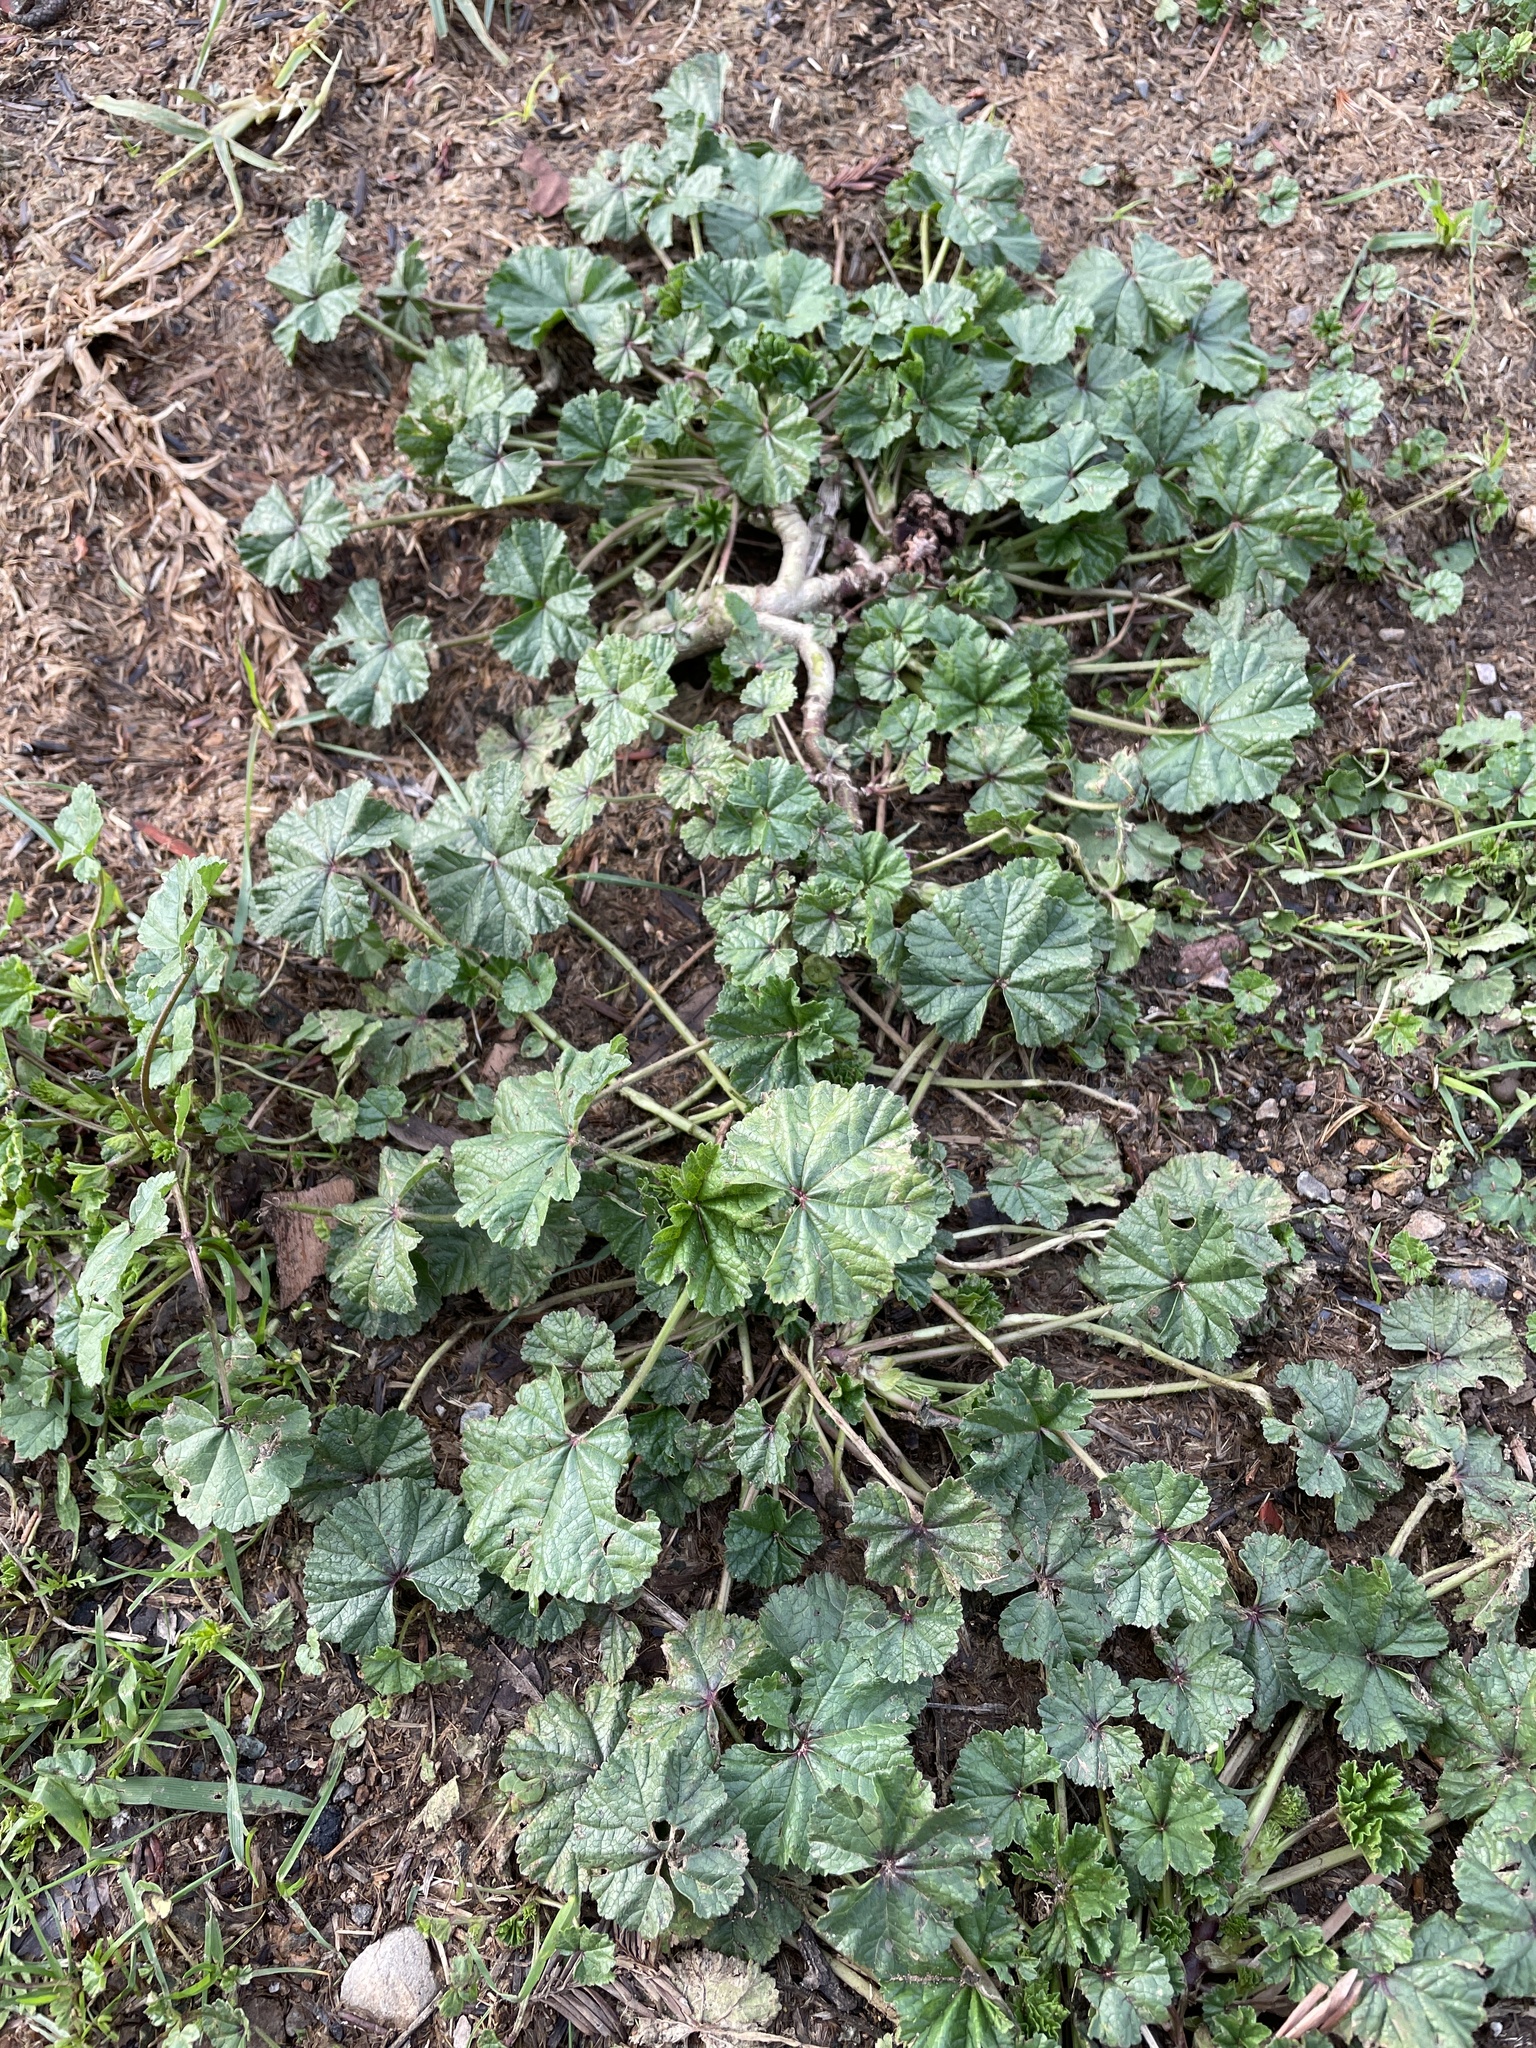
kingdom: Plantae
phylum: Tracheophyta
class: Magnoliopsida
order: Malvales
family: Malvaceae
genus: Malva
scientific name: Malva
